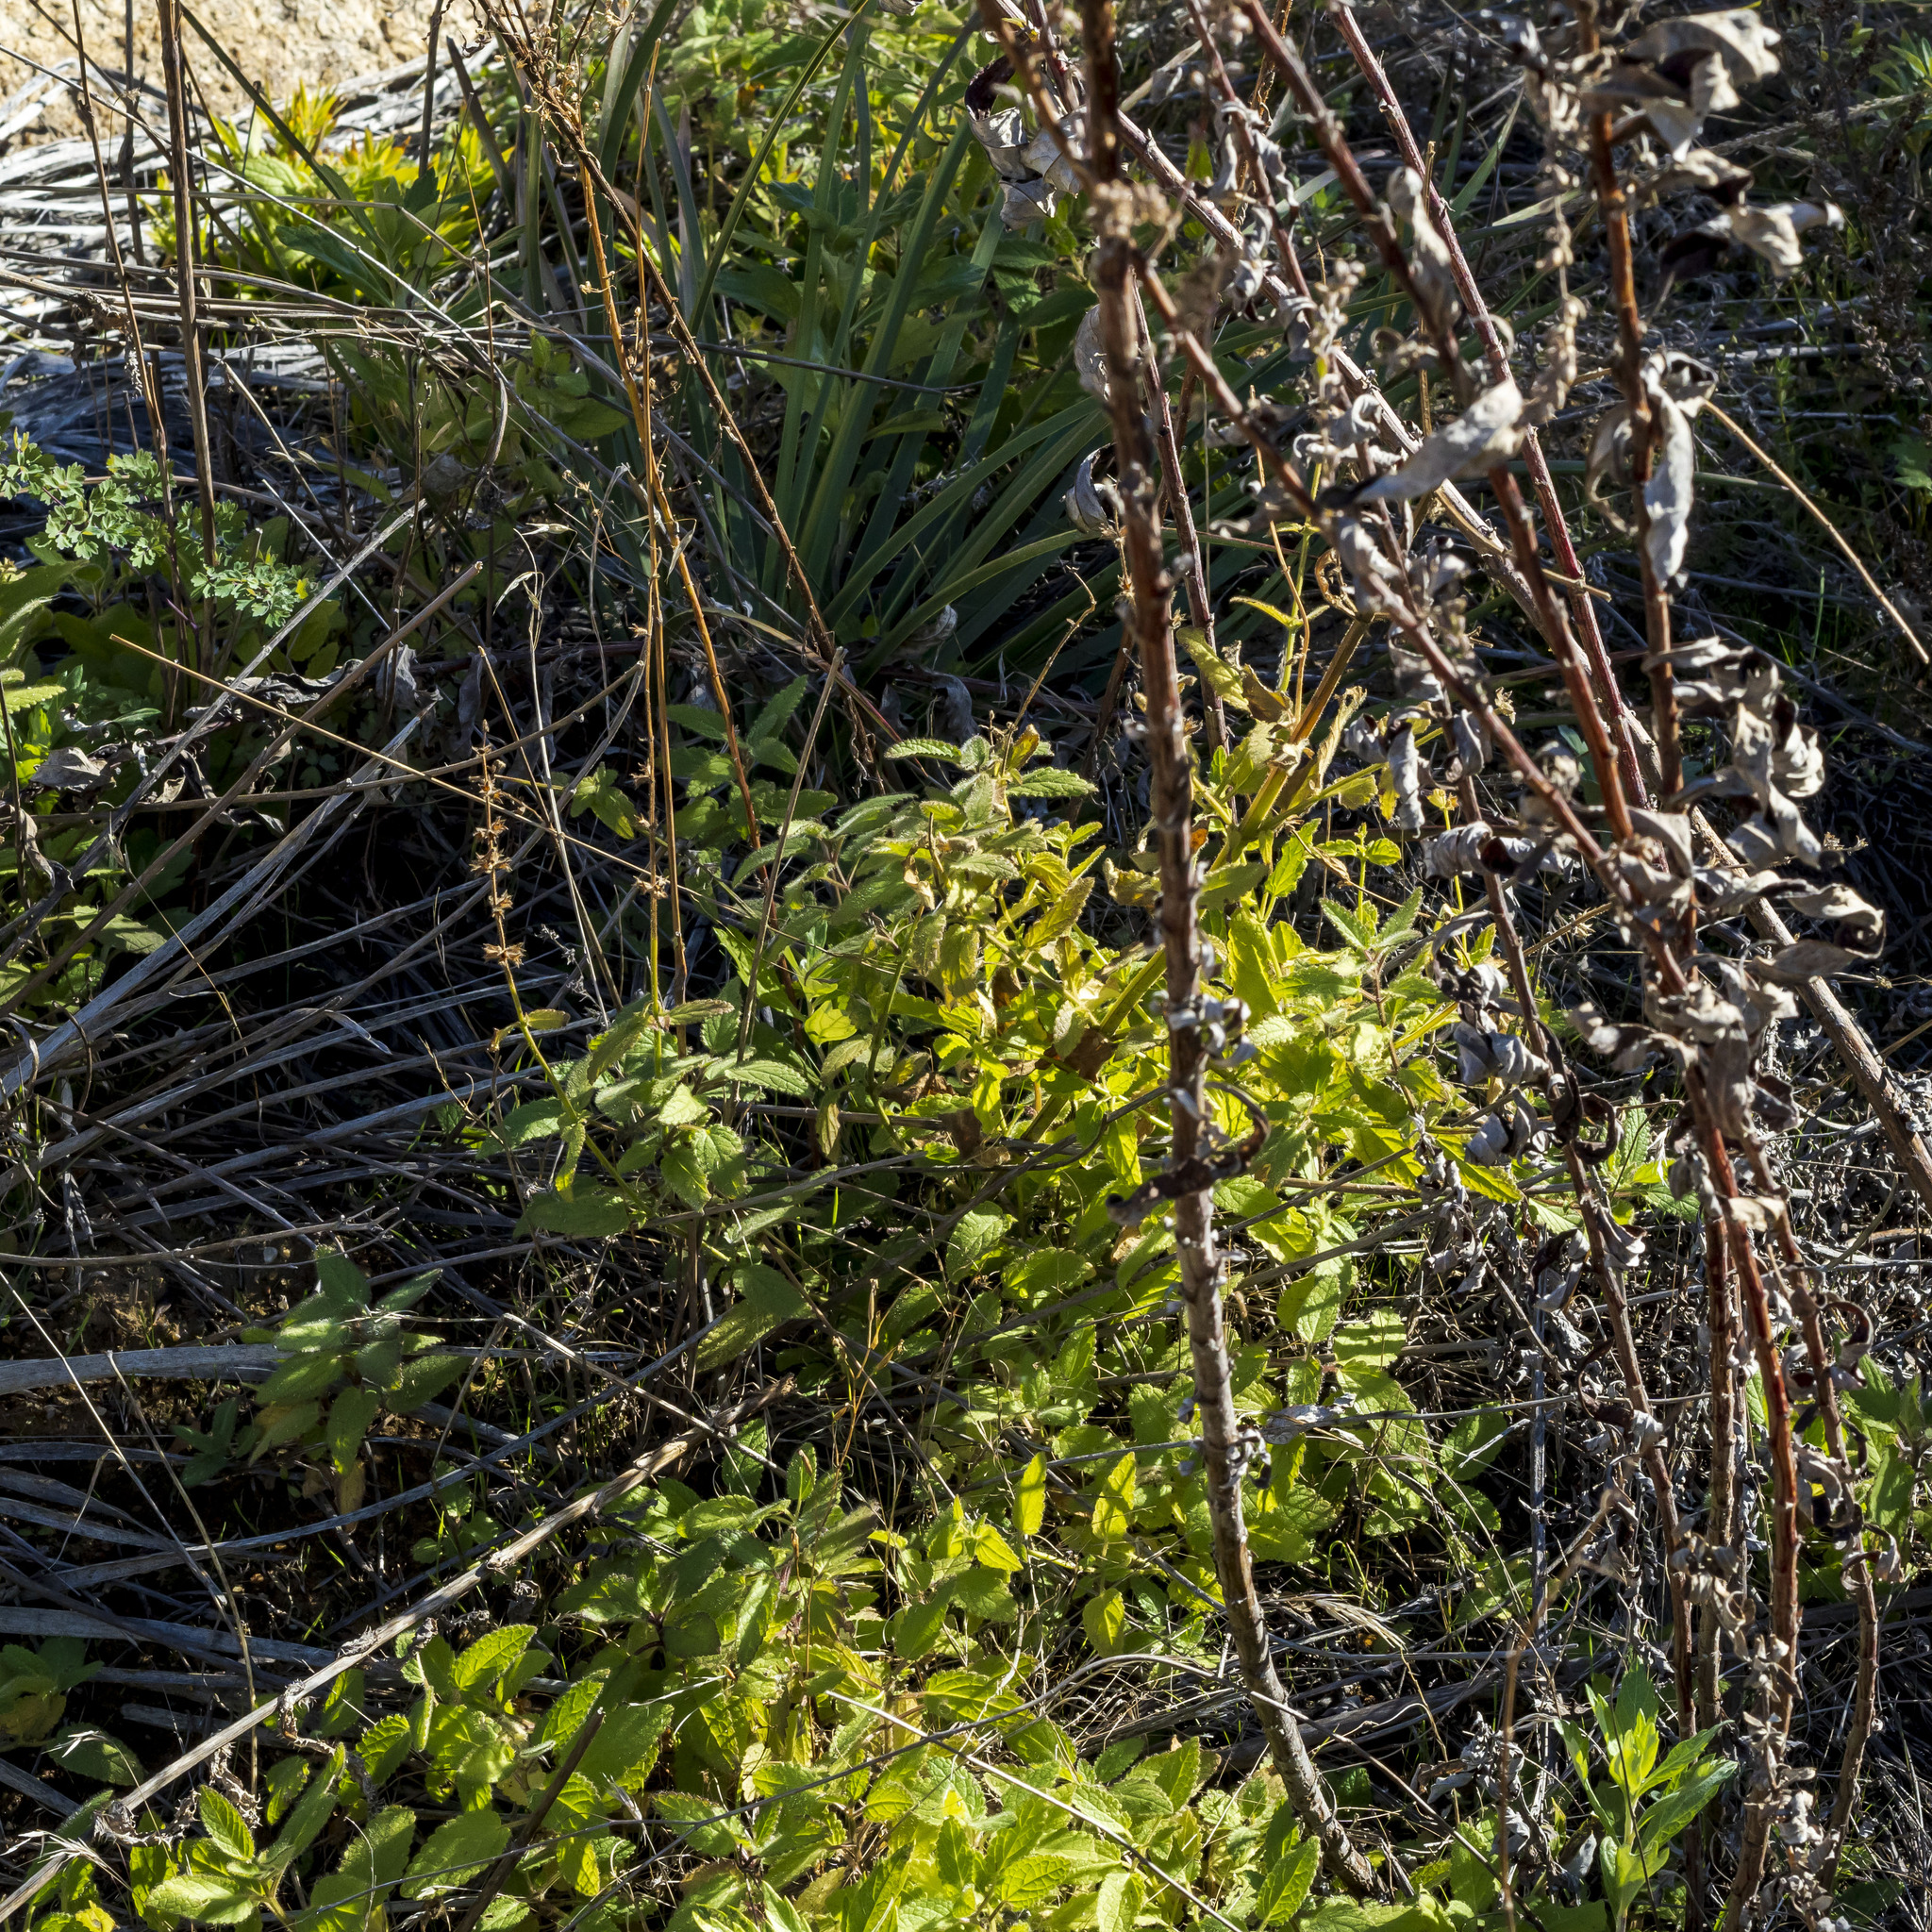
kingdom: Plantae
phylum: Tracheophyta
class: Magnoliopsida
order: Lamiales
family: Lamiaceae
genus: Stachys
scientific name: Stachys stebbinsii
